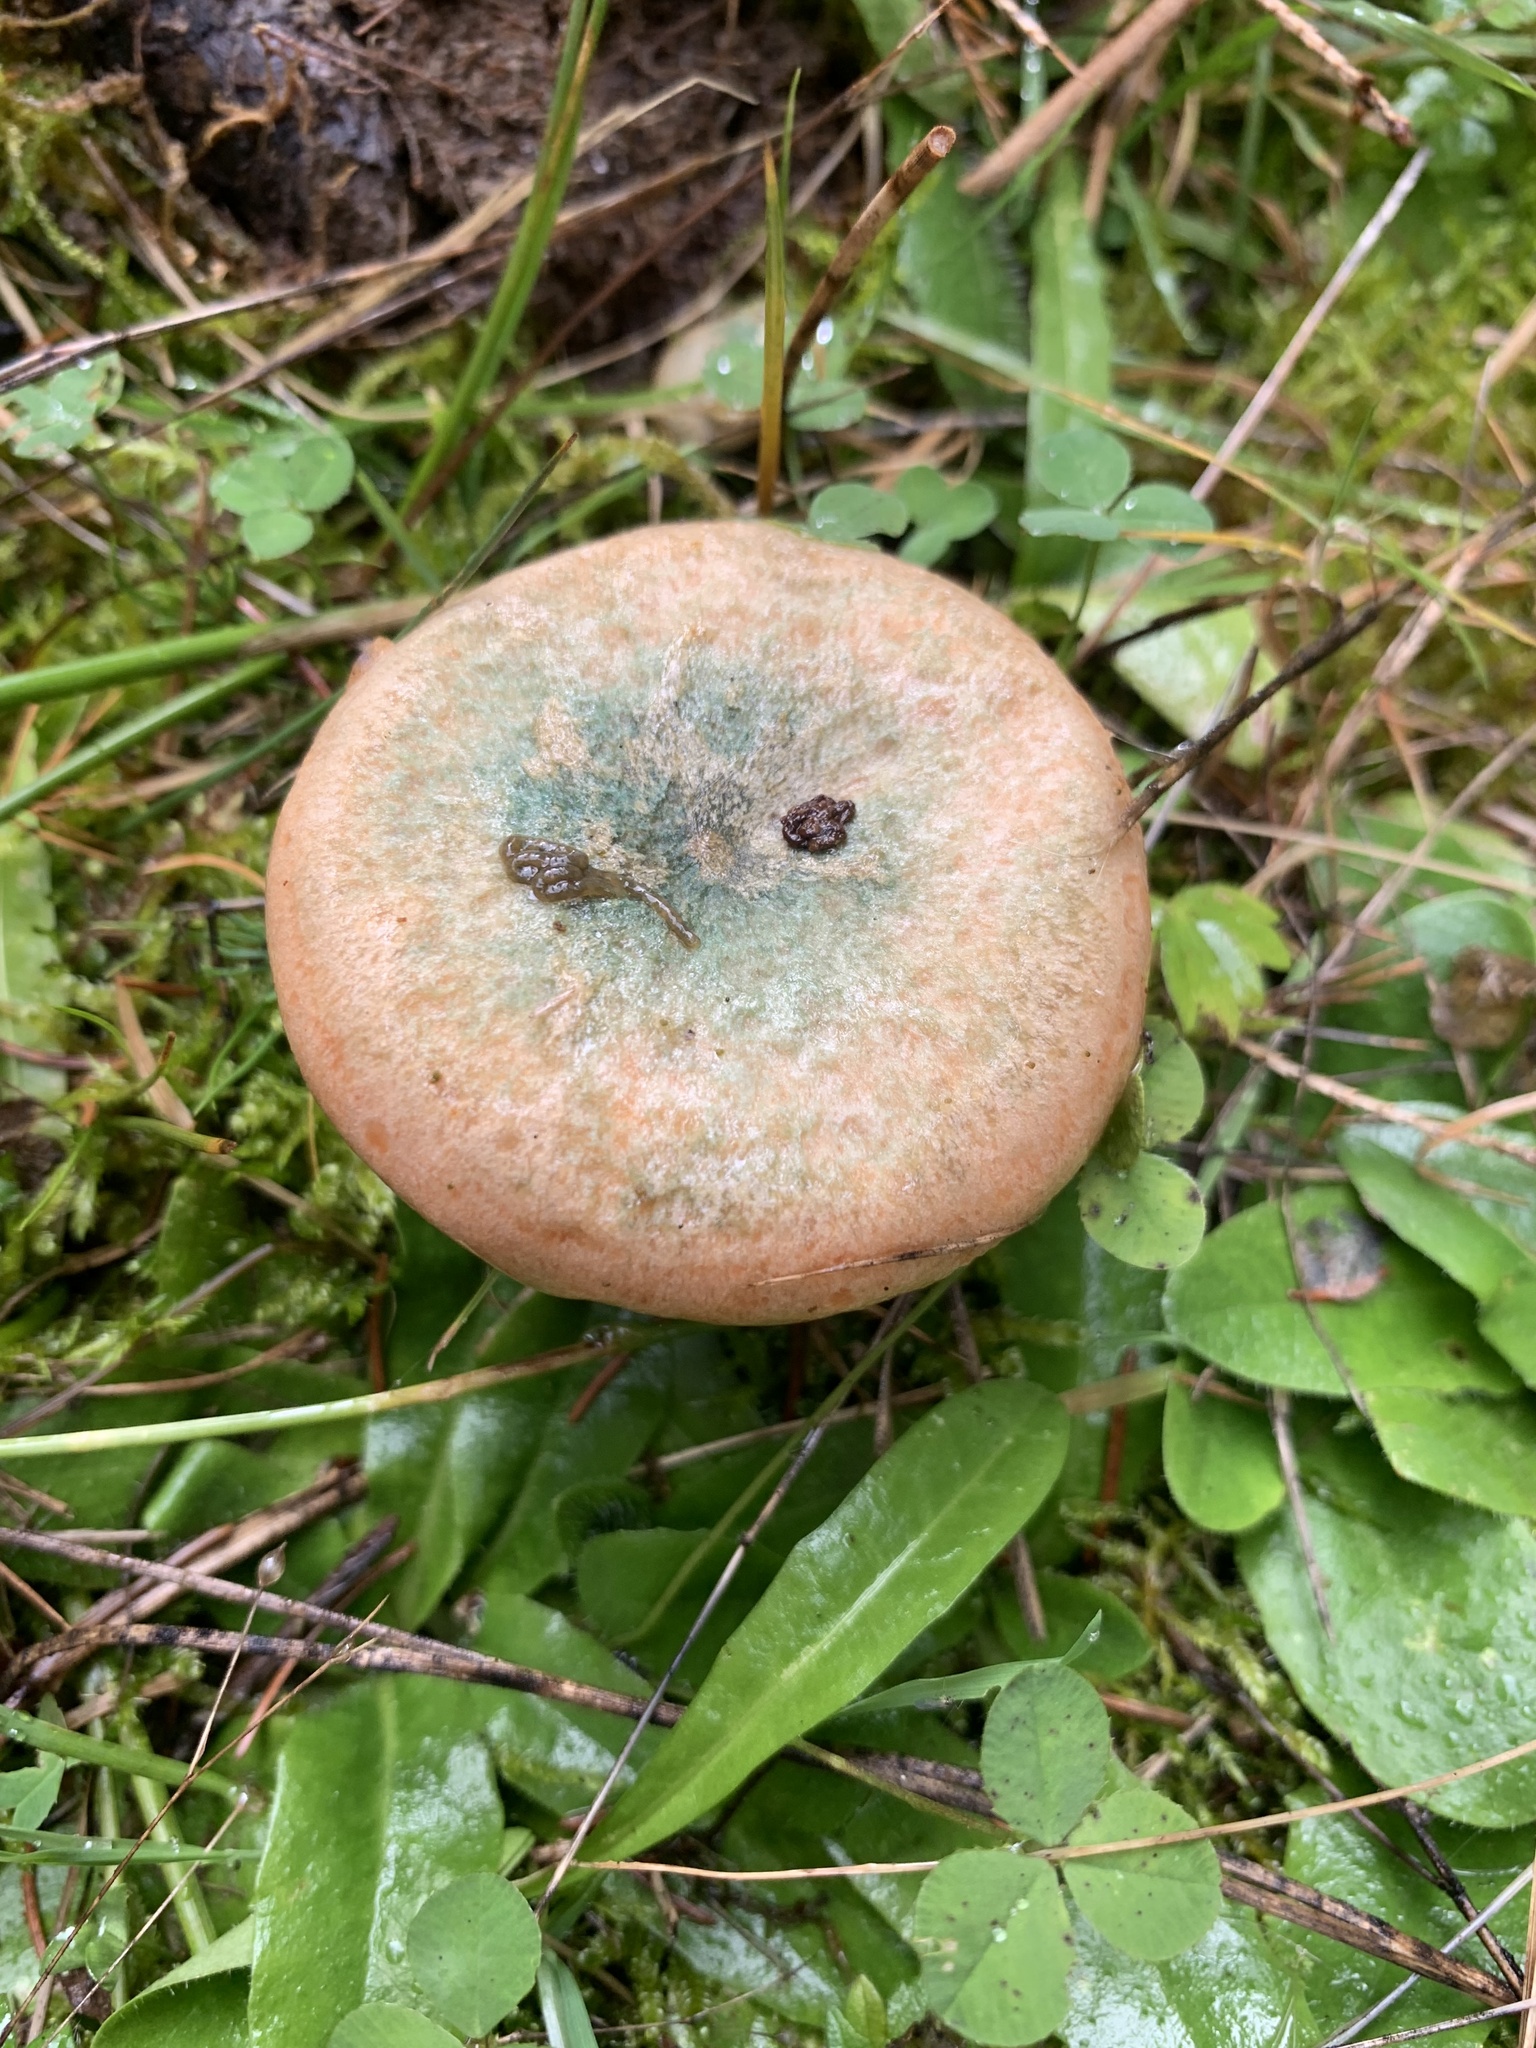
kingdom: Fungi
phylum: Basidiomycota
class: Agaricomycetes
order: Russulales
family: Russulaceae
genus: Lactarius
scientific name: Lactarius deterrimus
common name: False saffron milkcap
